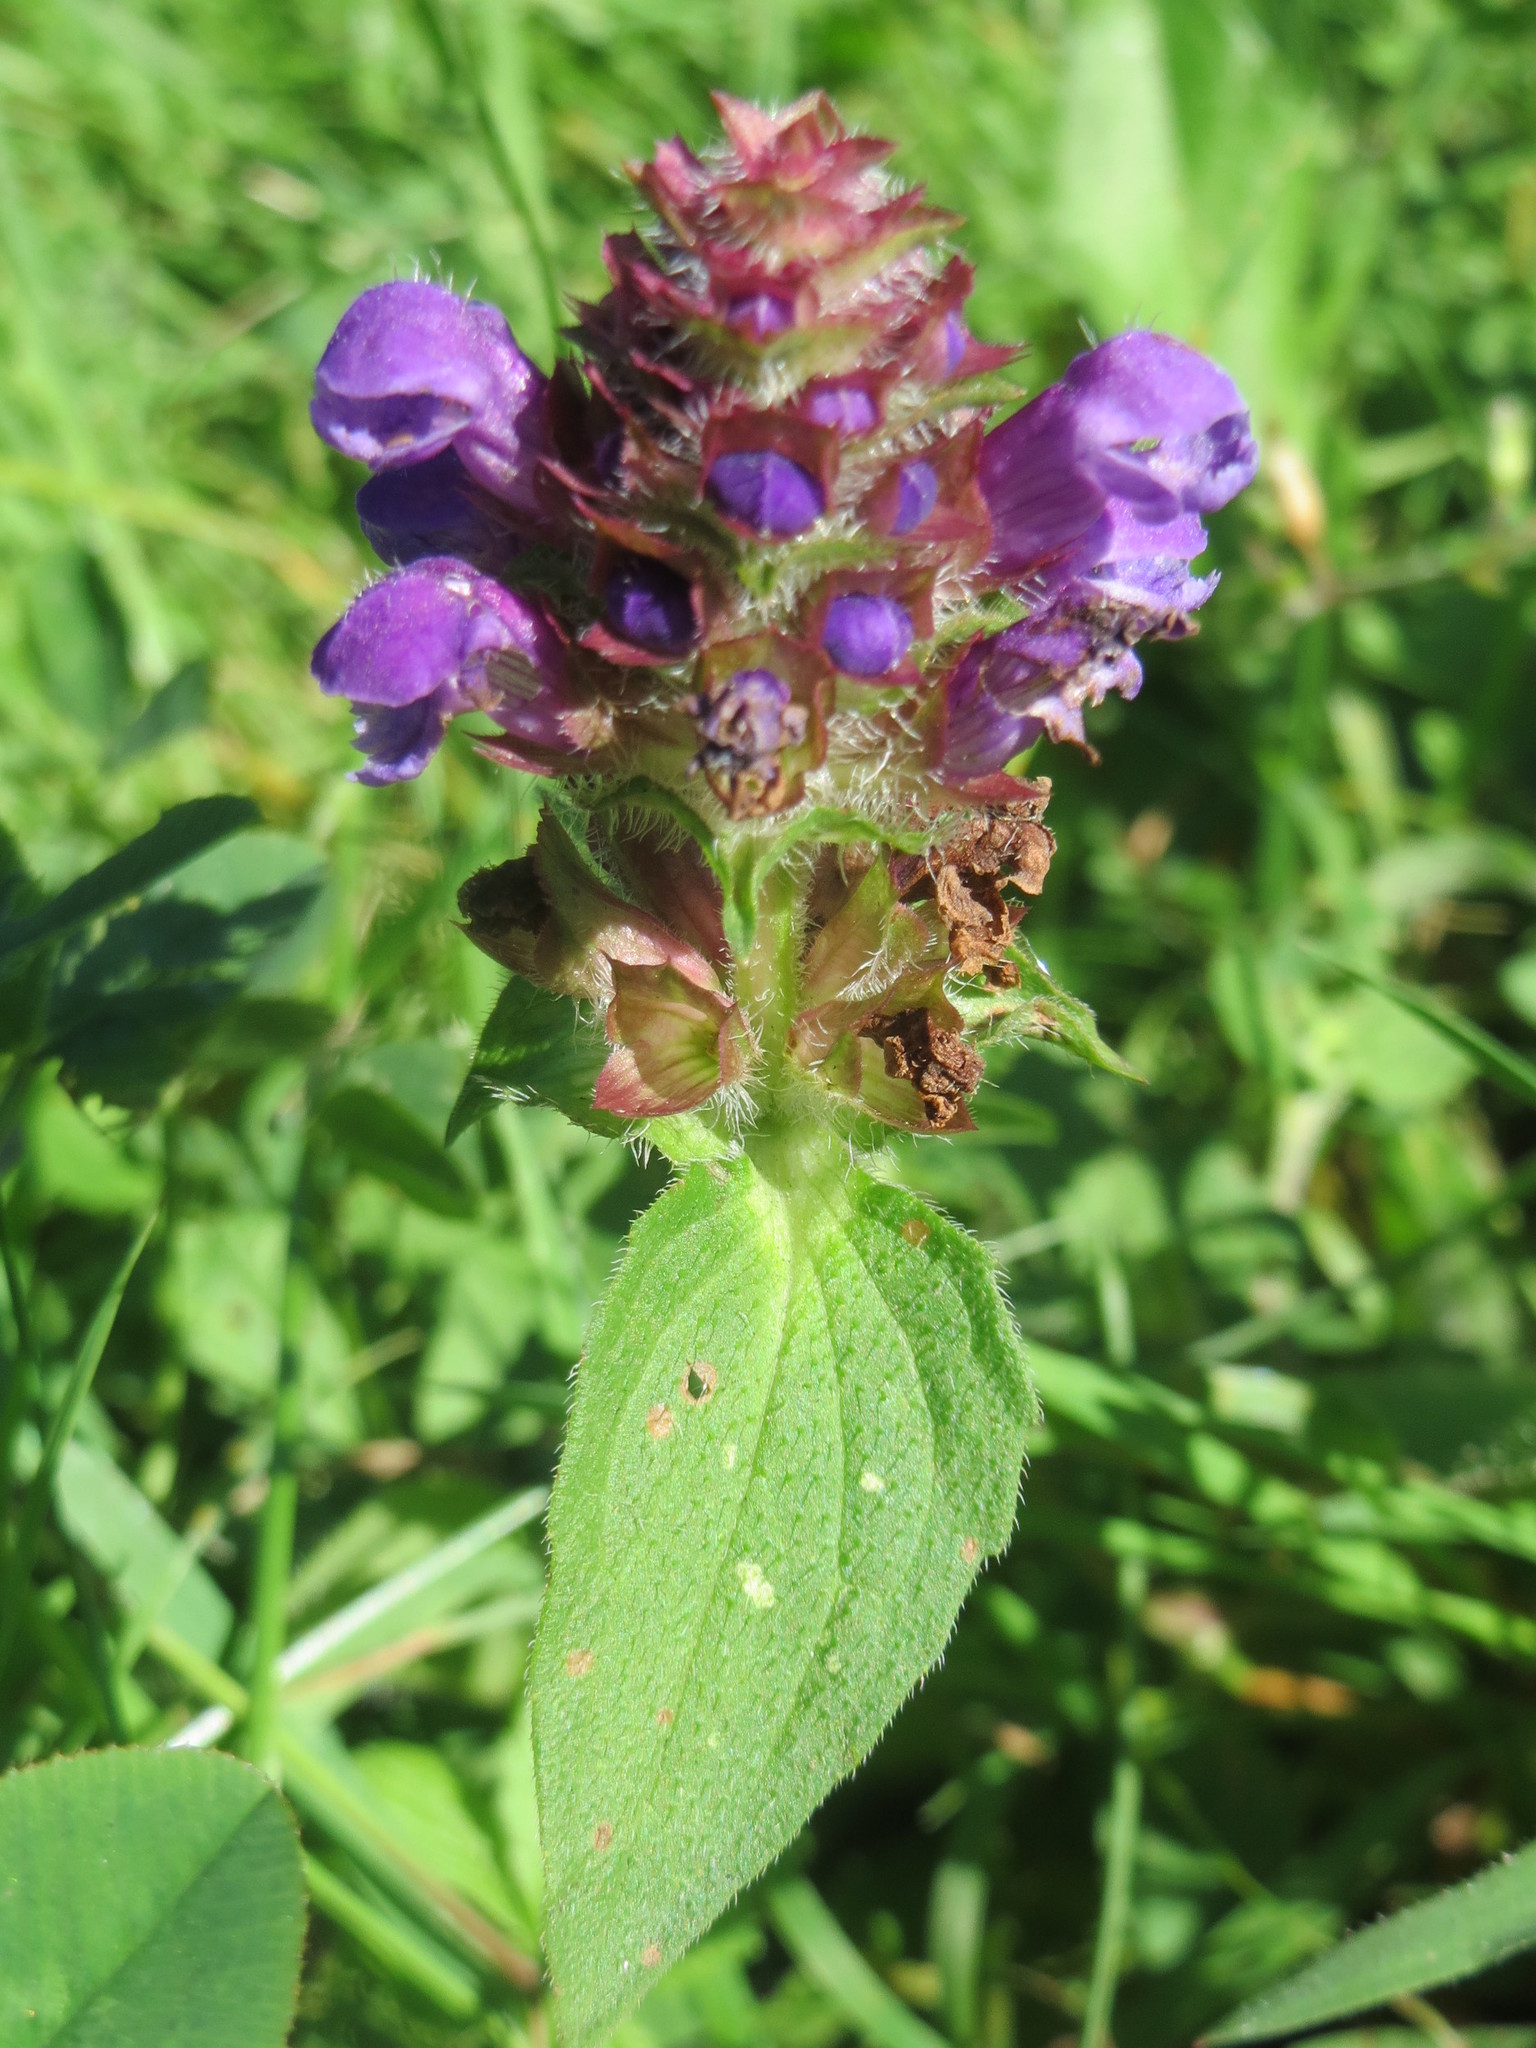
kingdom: Plantae
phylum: Tracheophyta
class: Magnoliopsida
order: Lamiales
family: Lamiaceae
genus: Prunella
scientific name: Prunella vulgaris
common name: Heal-all
